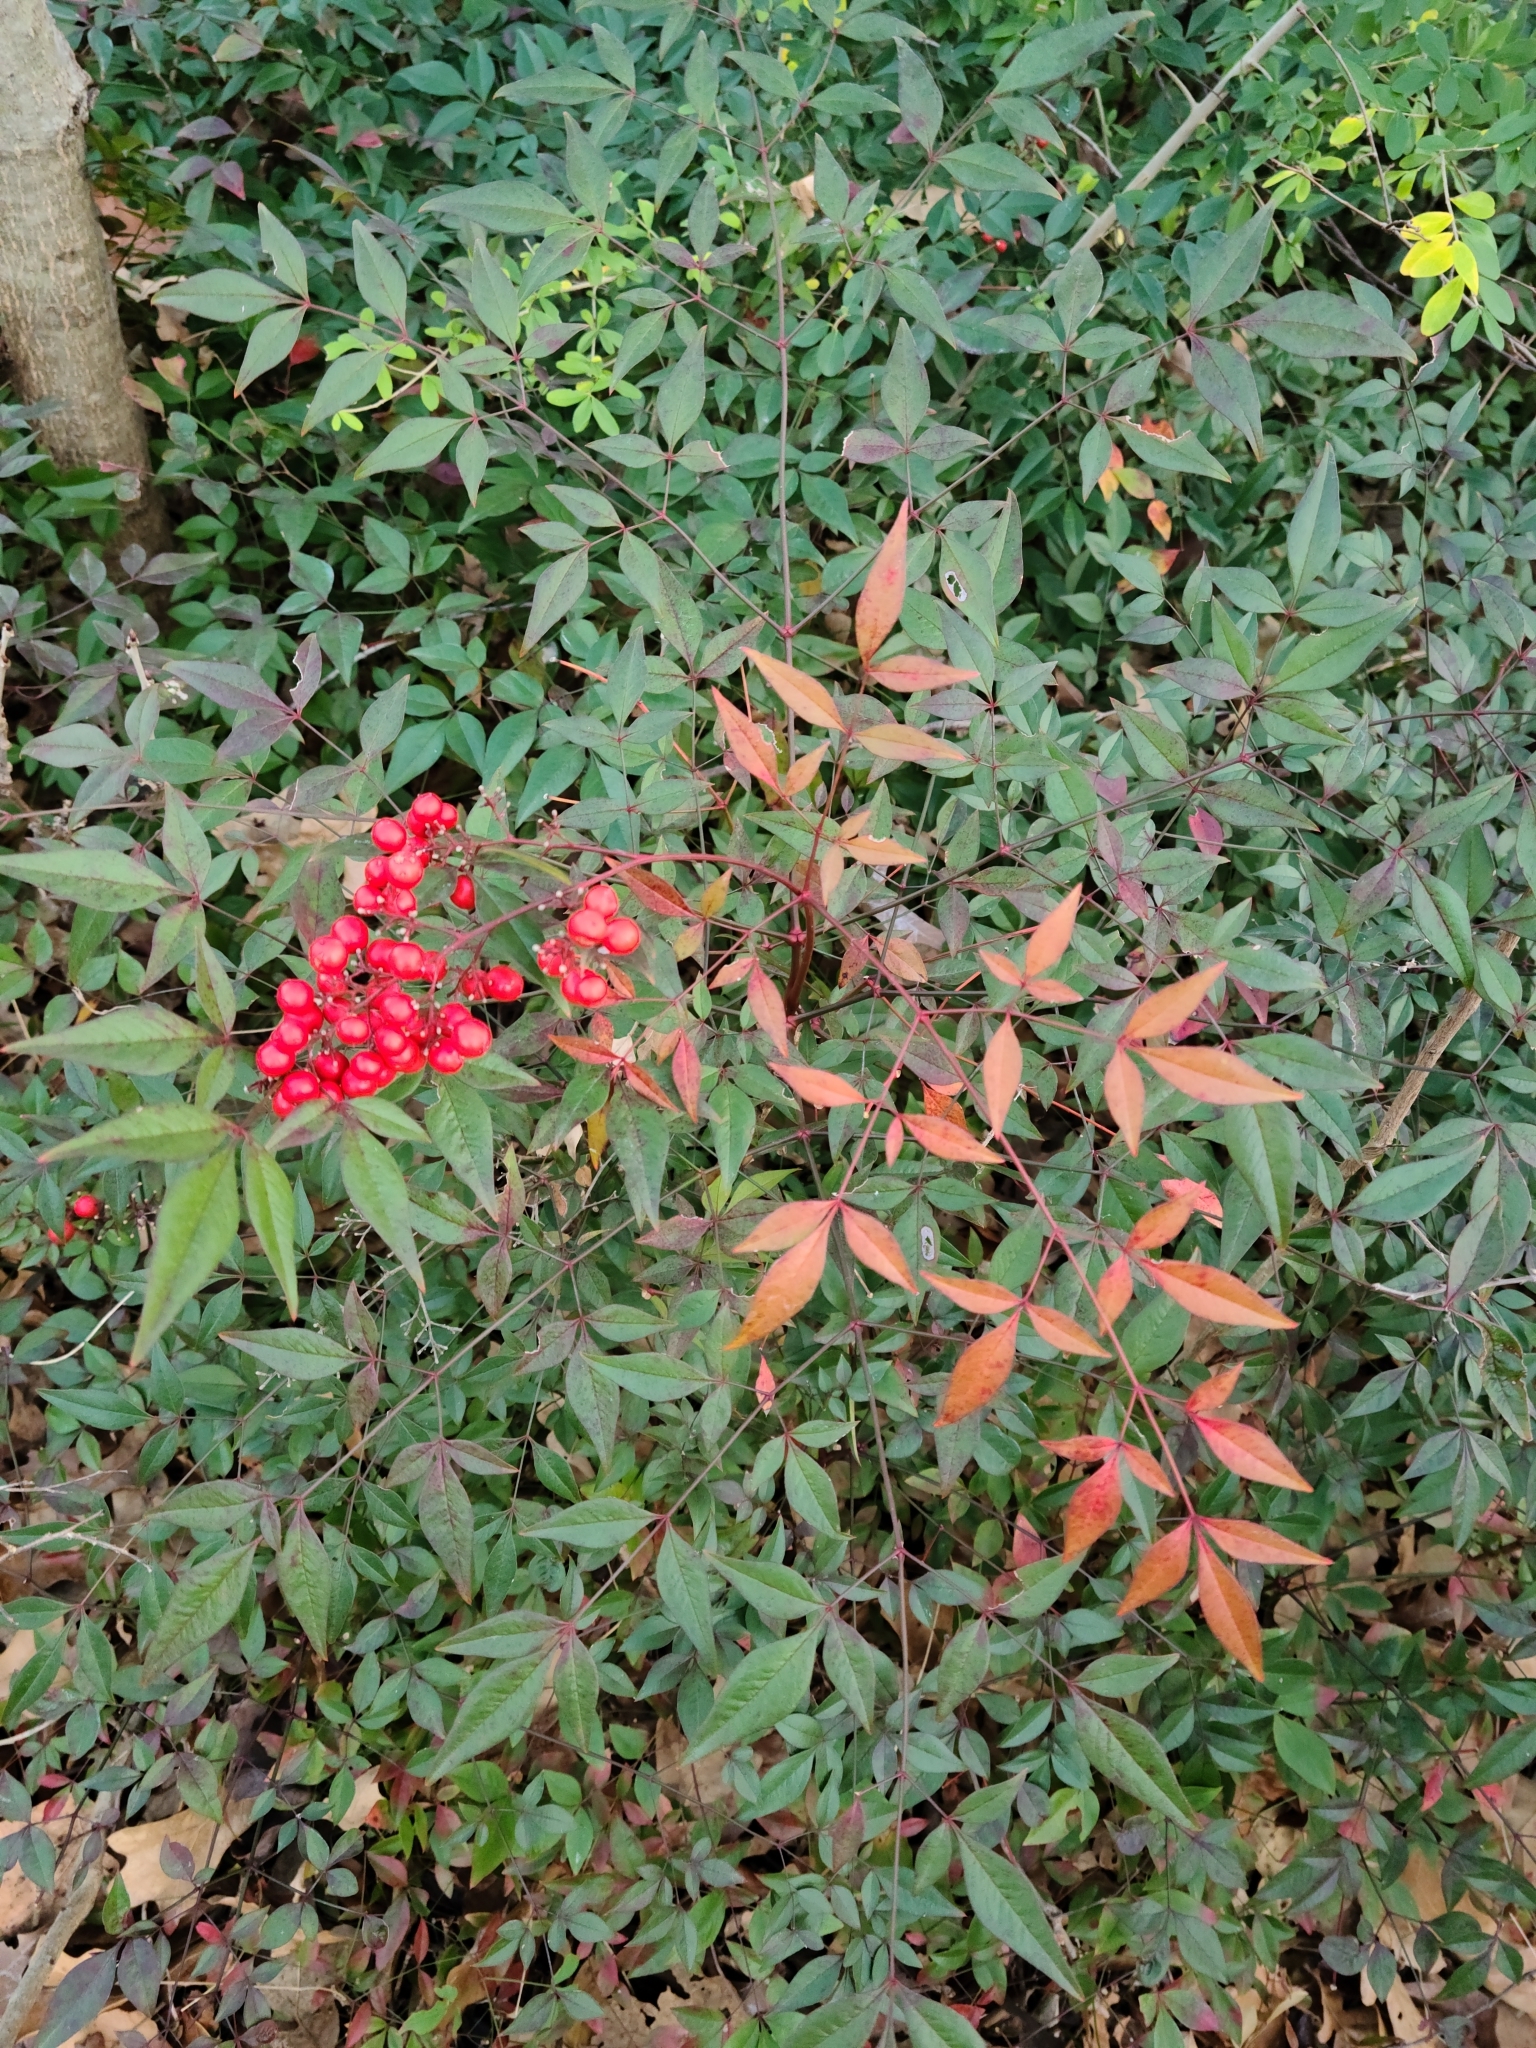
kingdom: Plantae
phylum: Tracheophyta
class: Magnoliopsida
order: Ranunculales
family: Berberidaceae
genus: Nandina
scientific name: Nandina domestica
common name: Sacred bamboo
